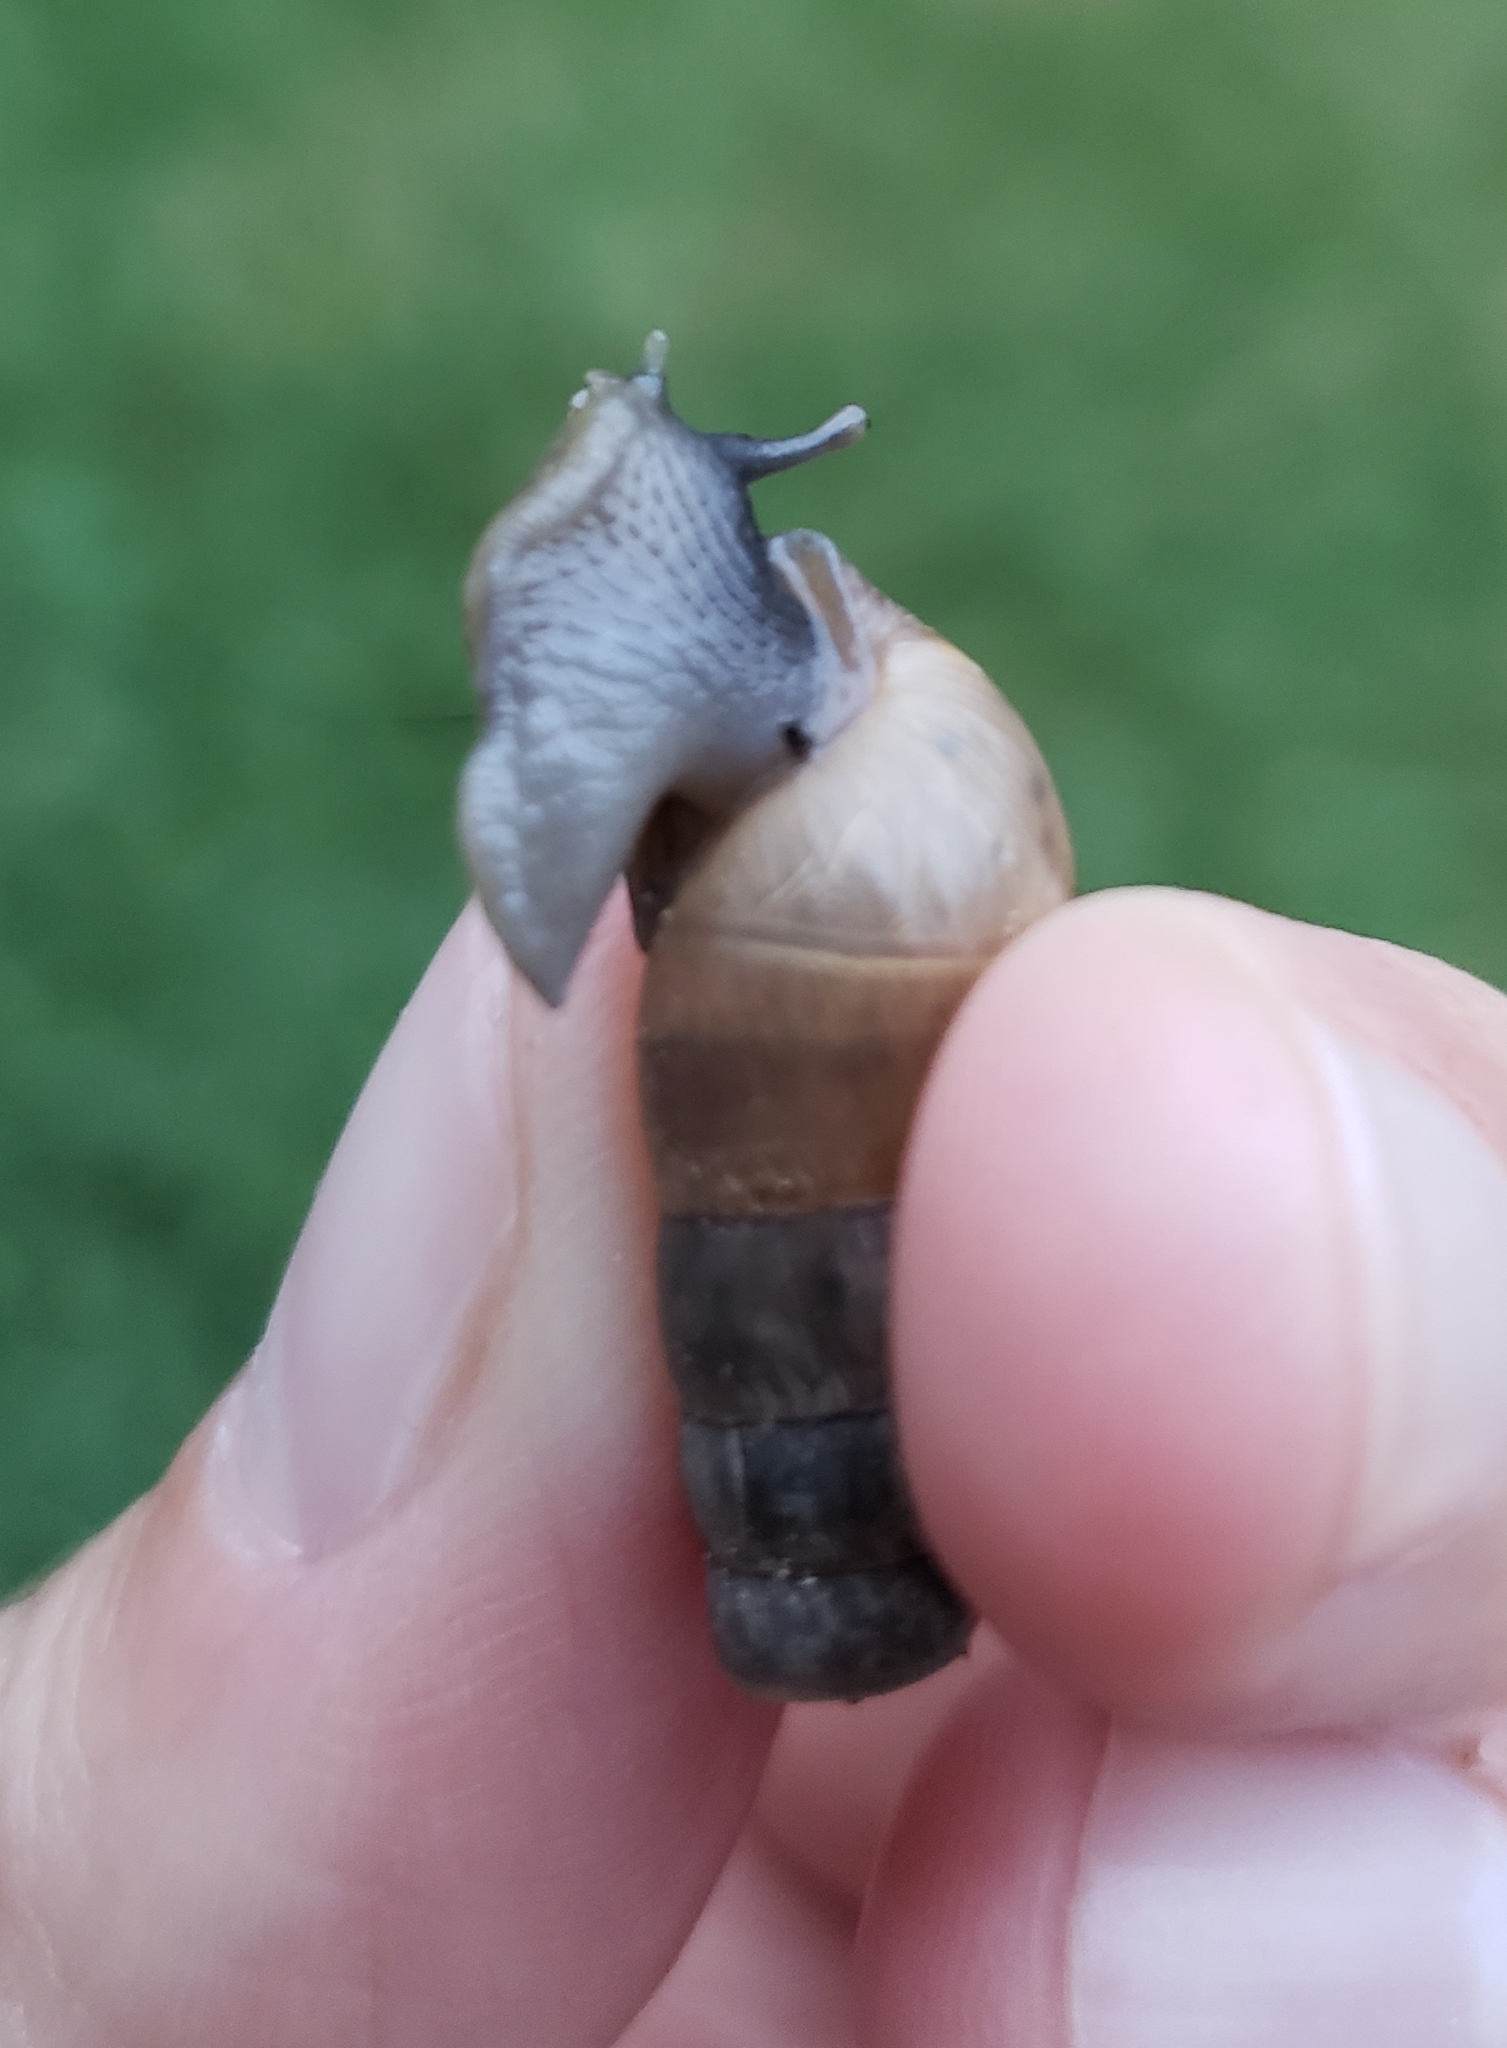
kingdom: Animalia
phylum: Mollusca
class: Gastropoda
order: Stylommatophora
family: Achatinidae
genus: Rumina
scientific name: Rumina decollata
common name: Decollate snail
